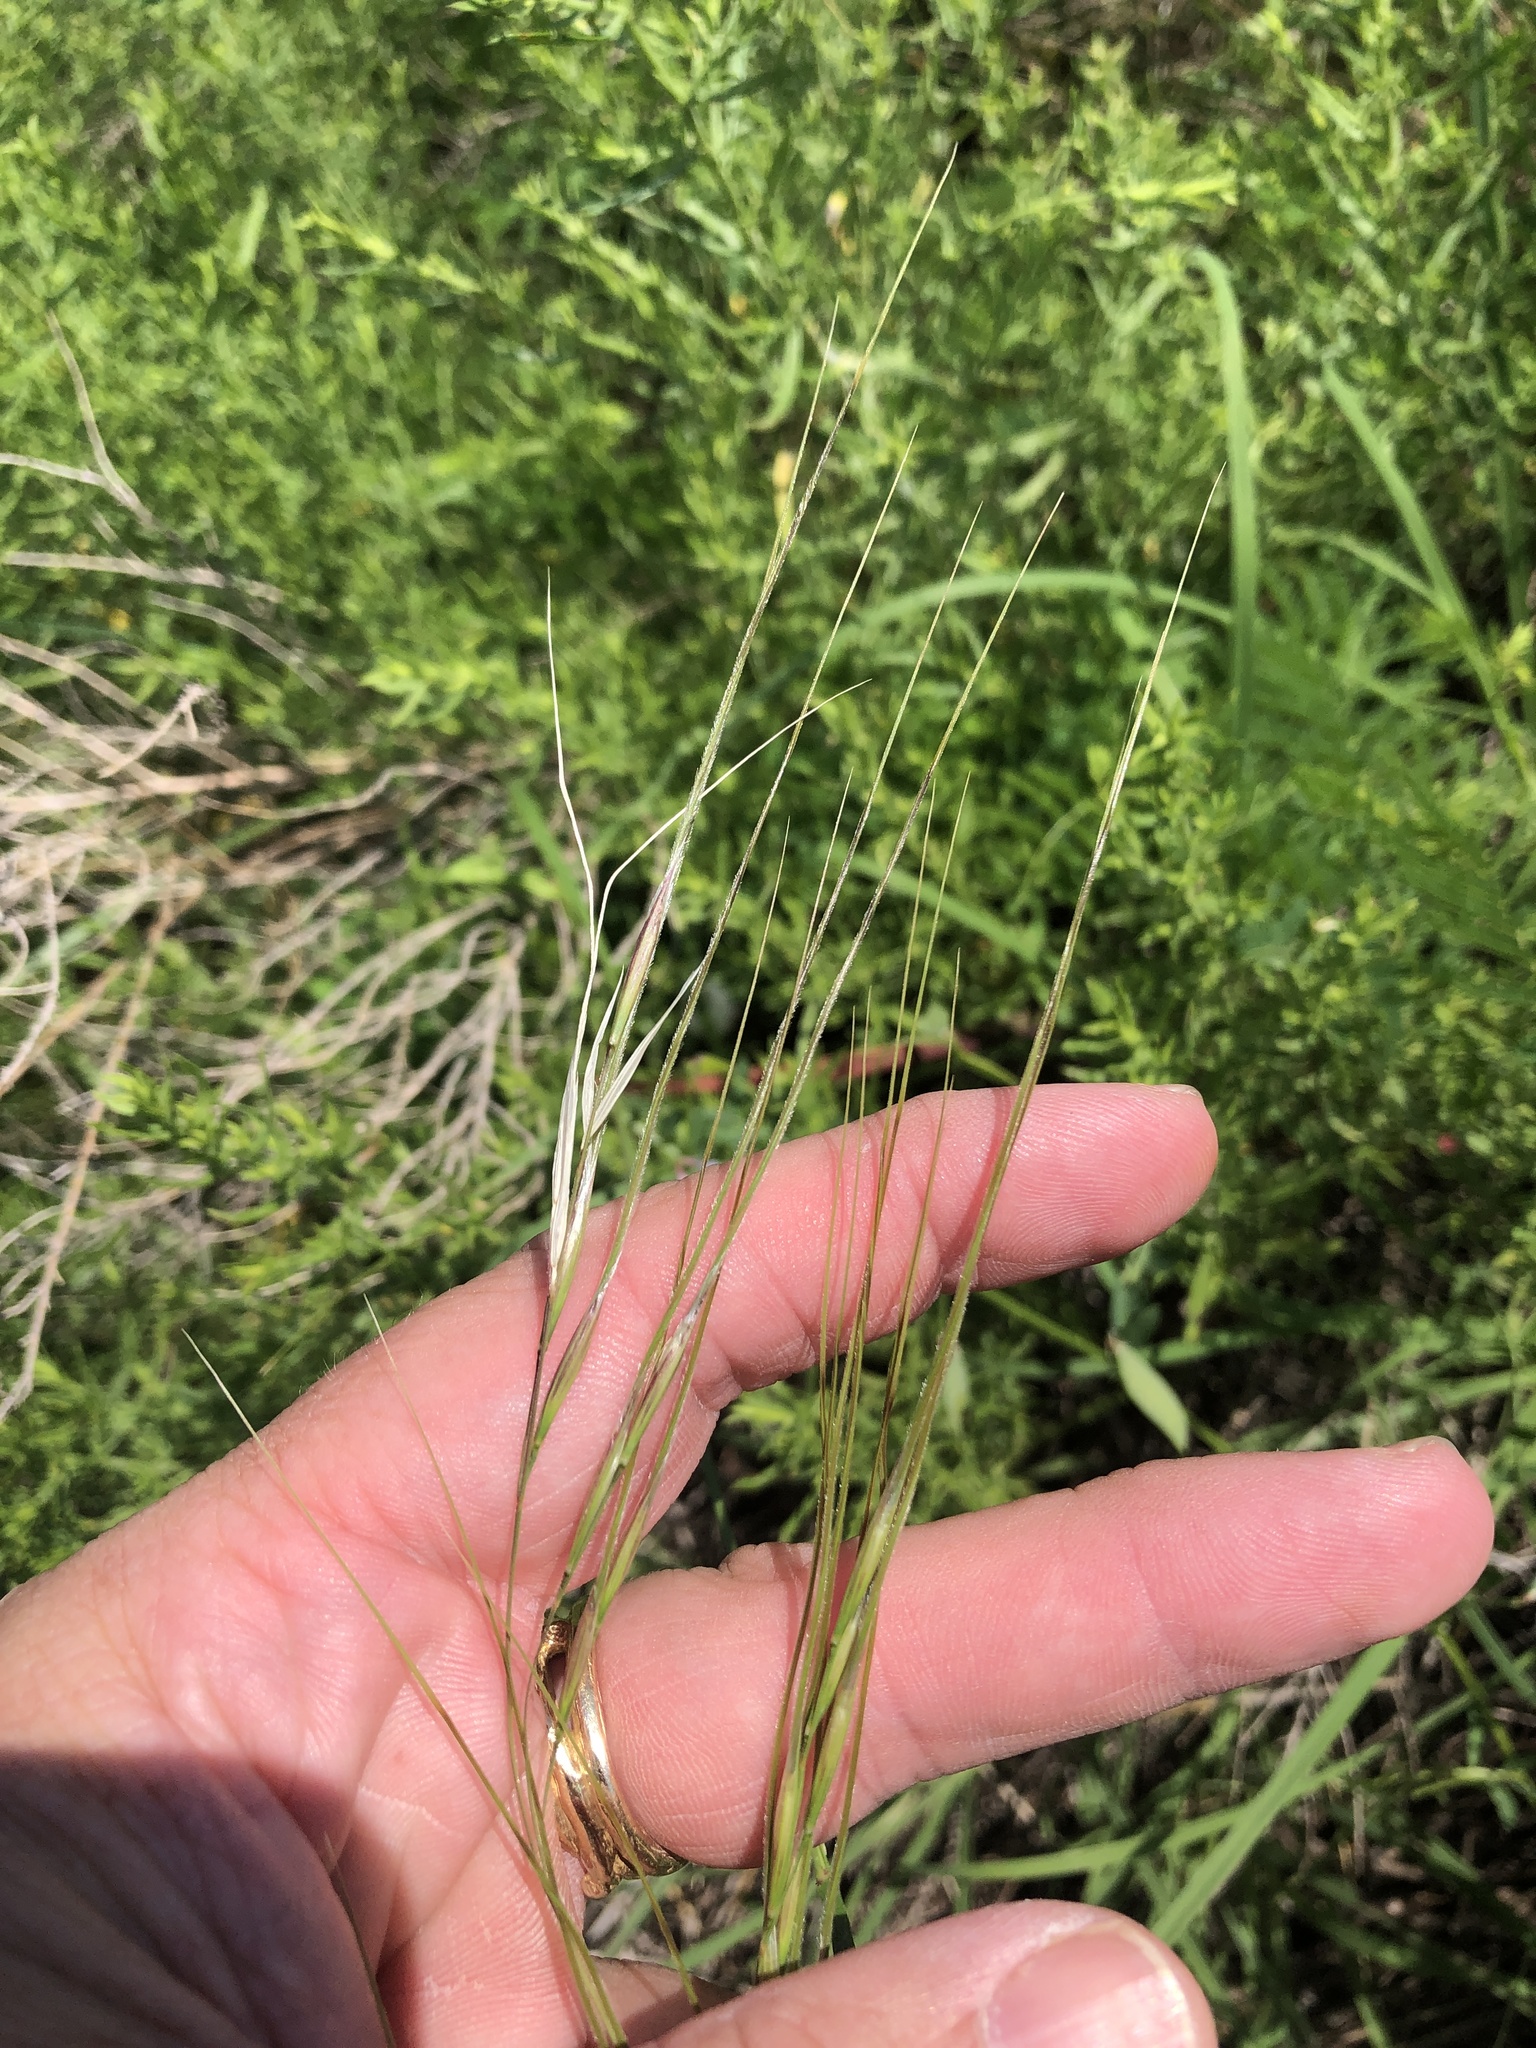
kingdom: Plantae
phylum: Tracheophyta
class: Liliopsida
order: Poales
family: Poaceae
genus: Nassella
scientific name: Nassella leucotricha
